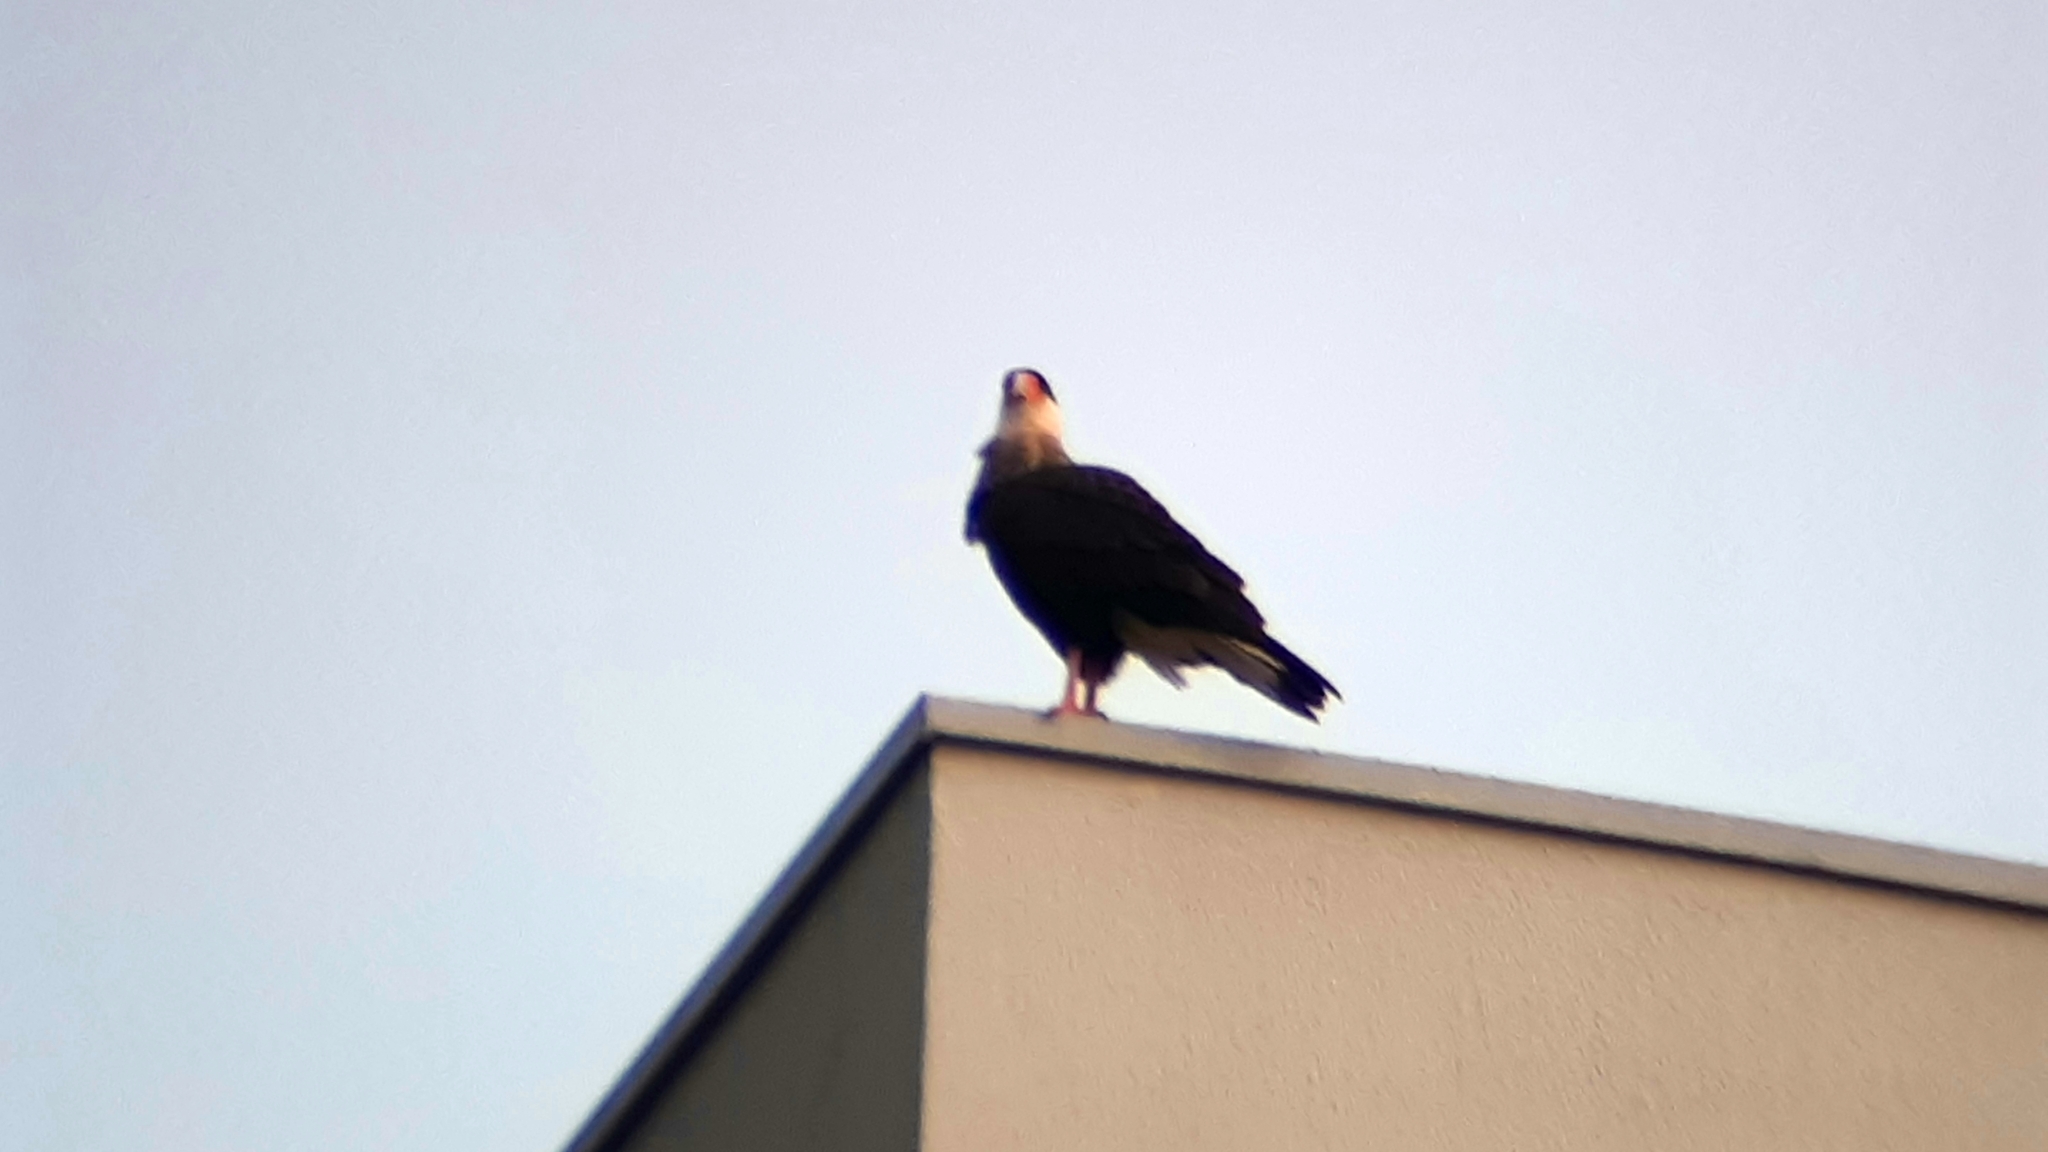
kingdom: Animalia
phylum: Chordata
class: Aves
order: Falconiformes
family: Falconidae
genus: Caracara
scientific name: Caracara plancus
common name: Southern caracara
